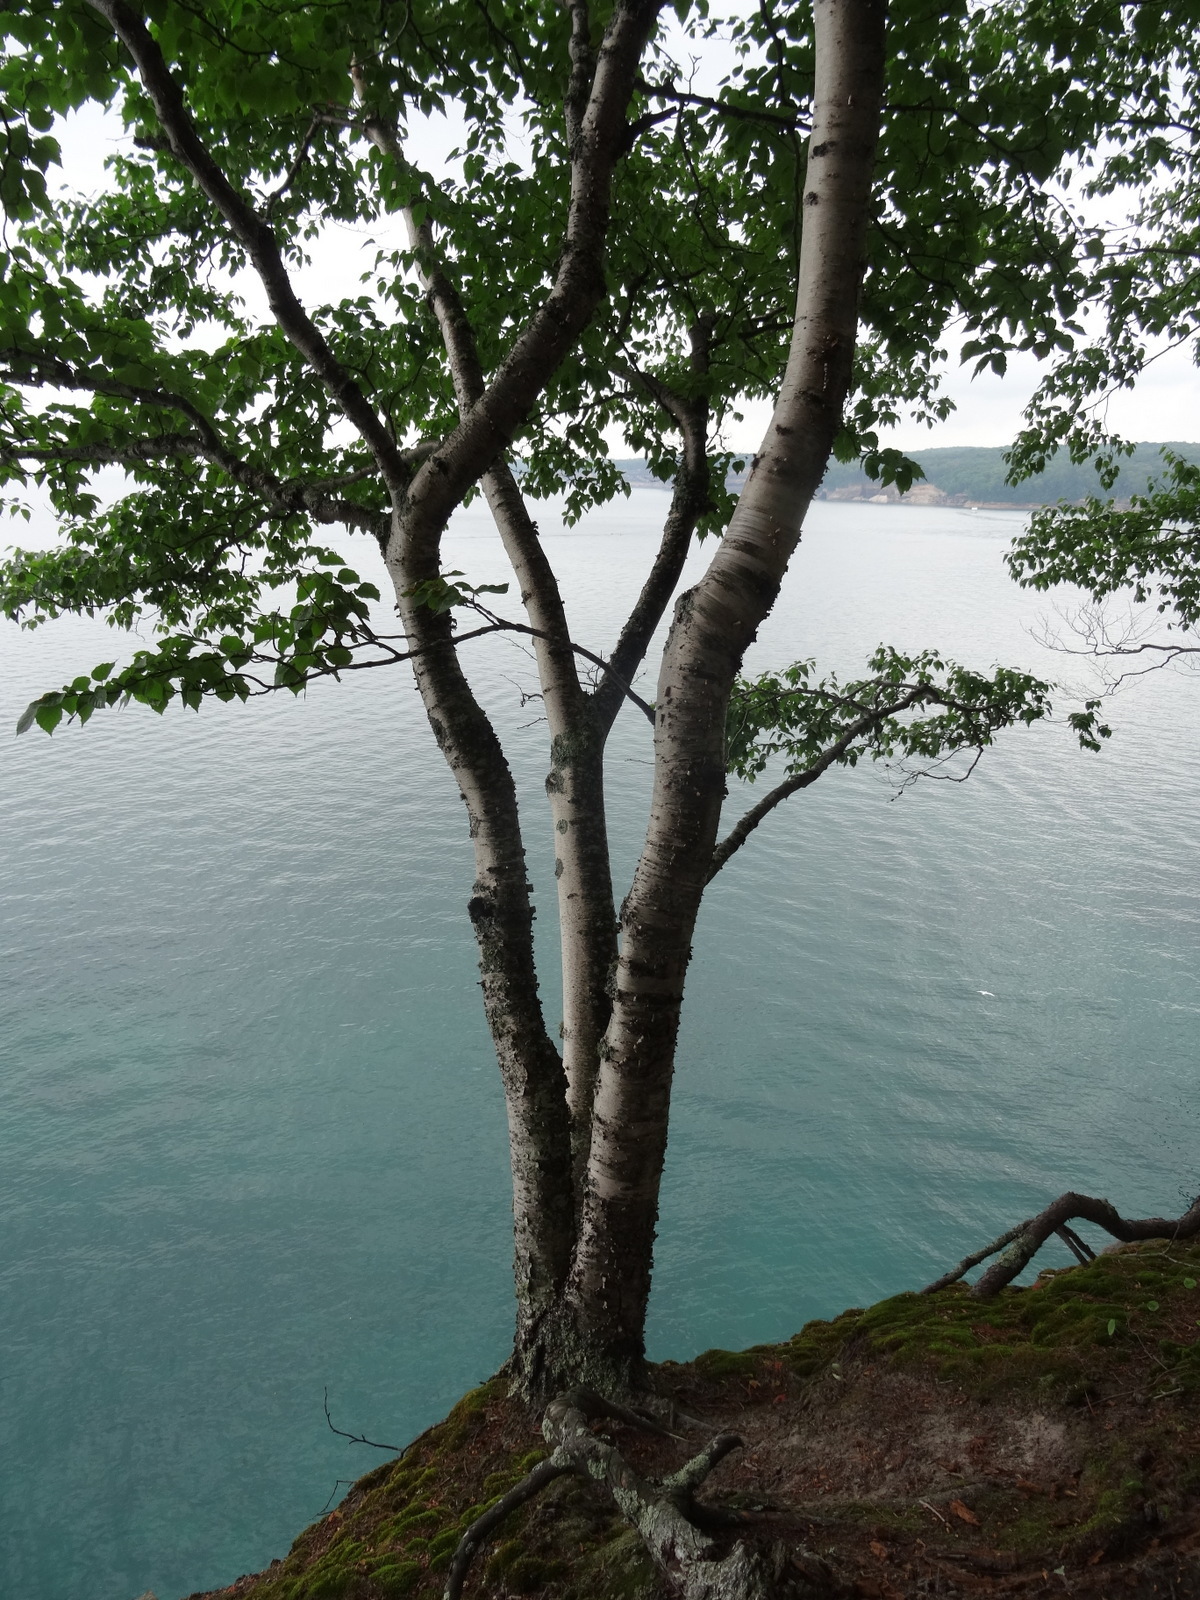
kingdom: Plantae
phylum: Tracheophyta
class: Magnoliopsida
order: Fagales
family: Betulaceae
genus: Betula
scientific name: Betula papyrifera
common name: Paper birch
